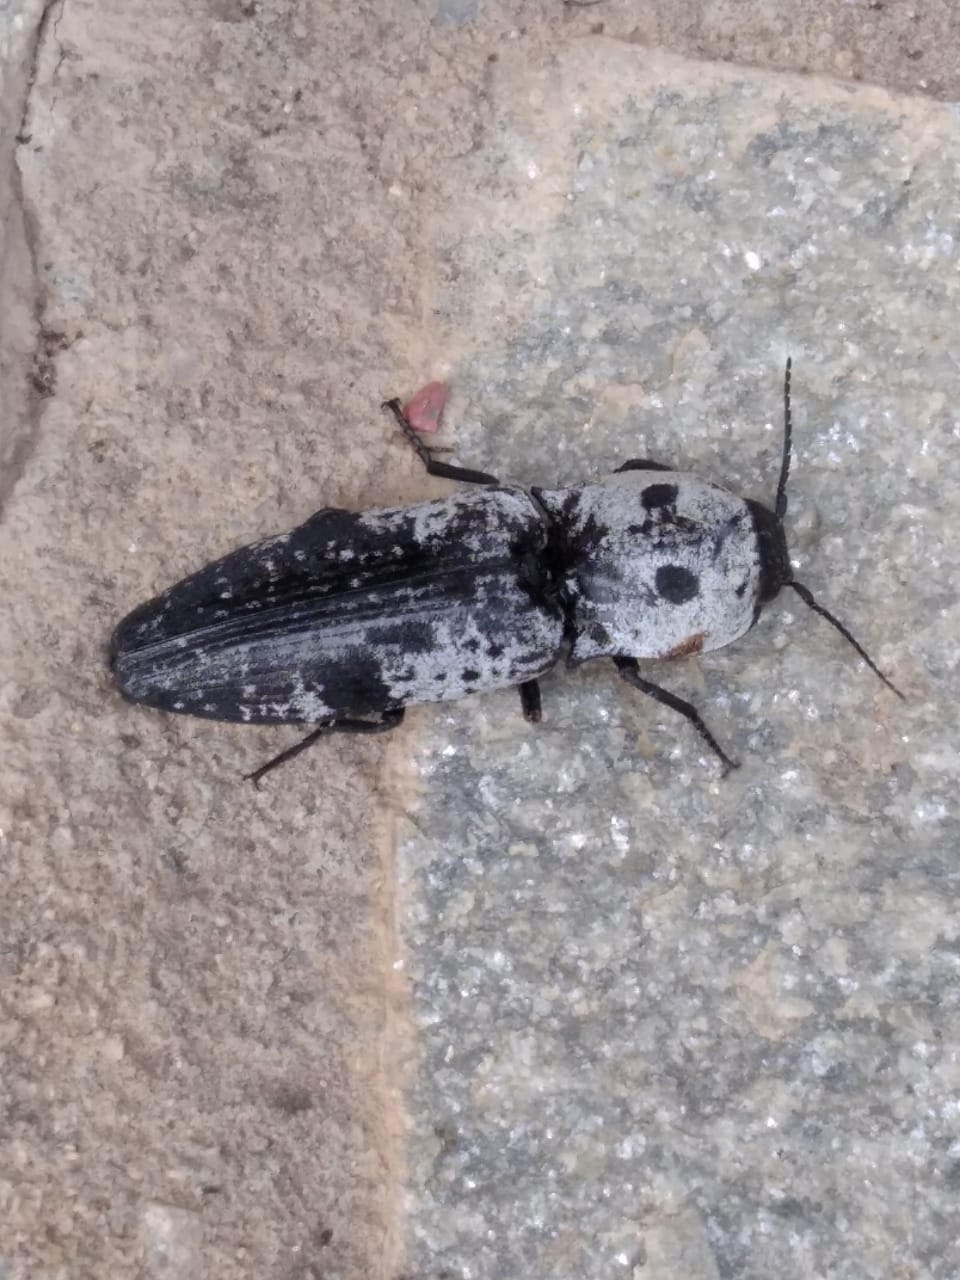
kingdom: Animalia
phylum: Arthropoda
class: Insecta
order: Coleoptera
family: Elateridae
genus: Calais
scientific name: Calais parreysii
